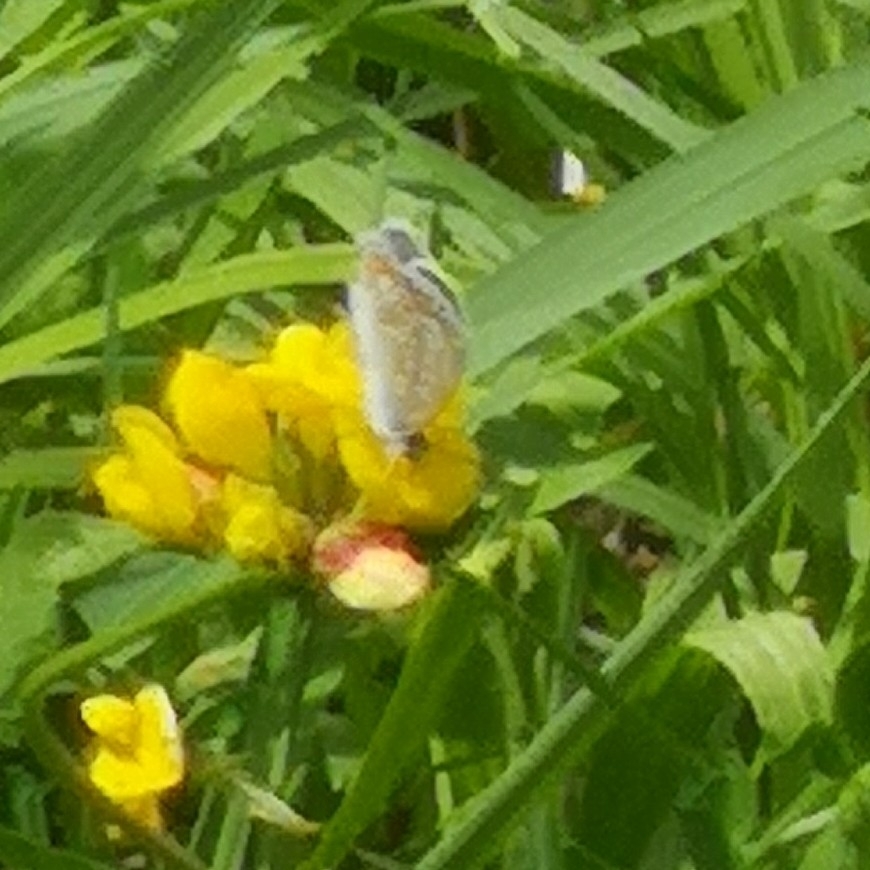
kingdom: Animalia
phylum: Arthropoda
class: Insecta
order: Lepidoptera
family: Lycaenidae
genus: Polyommatus
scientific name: Polyommatus icarus
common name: Common blue
